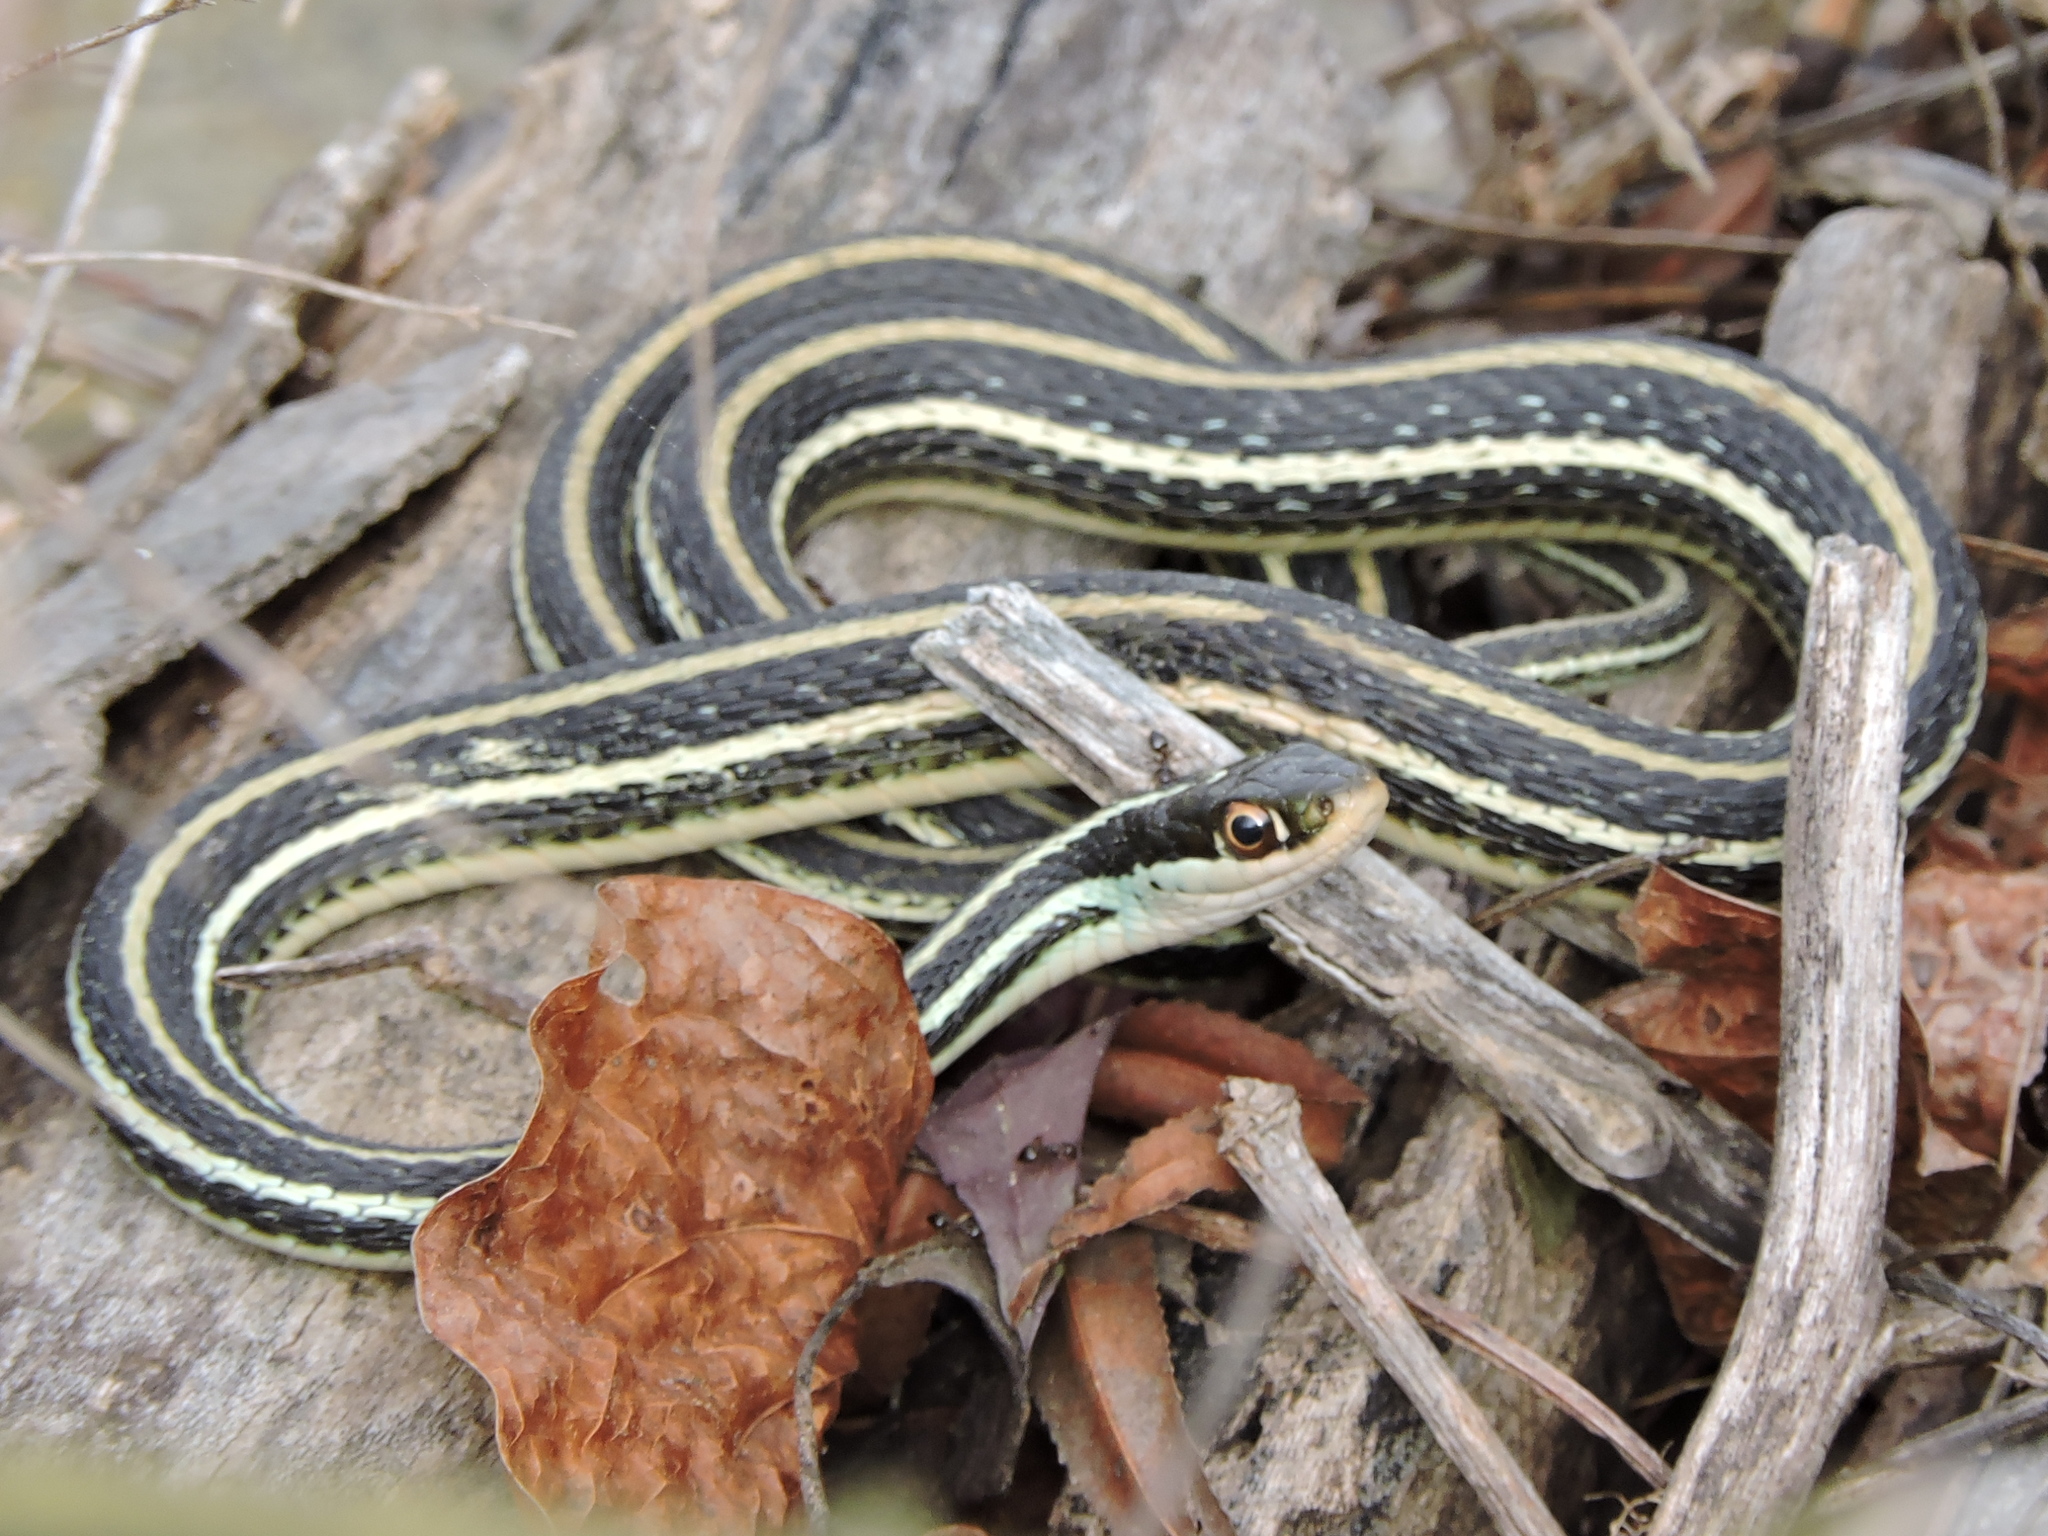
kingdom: Animalia
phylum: Chordata
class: Squamata
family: Colubridae
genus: Thamnophis
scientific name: Thamnophis proximus
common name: Western ribbon snake
